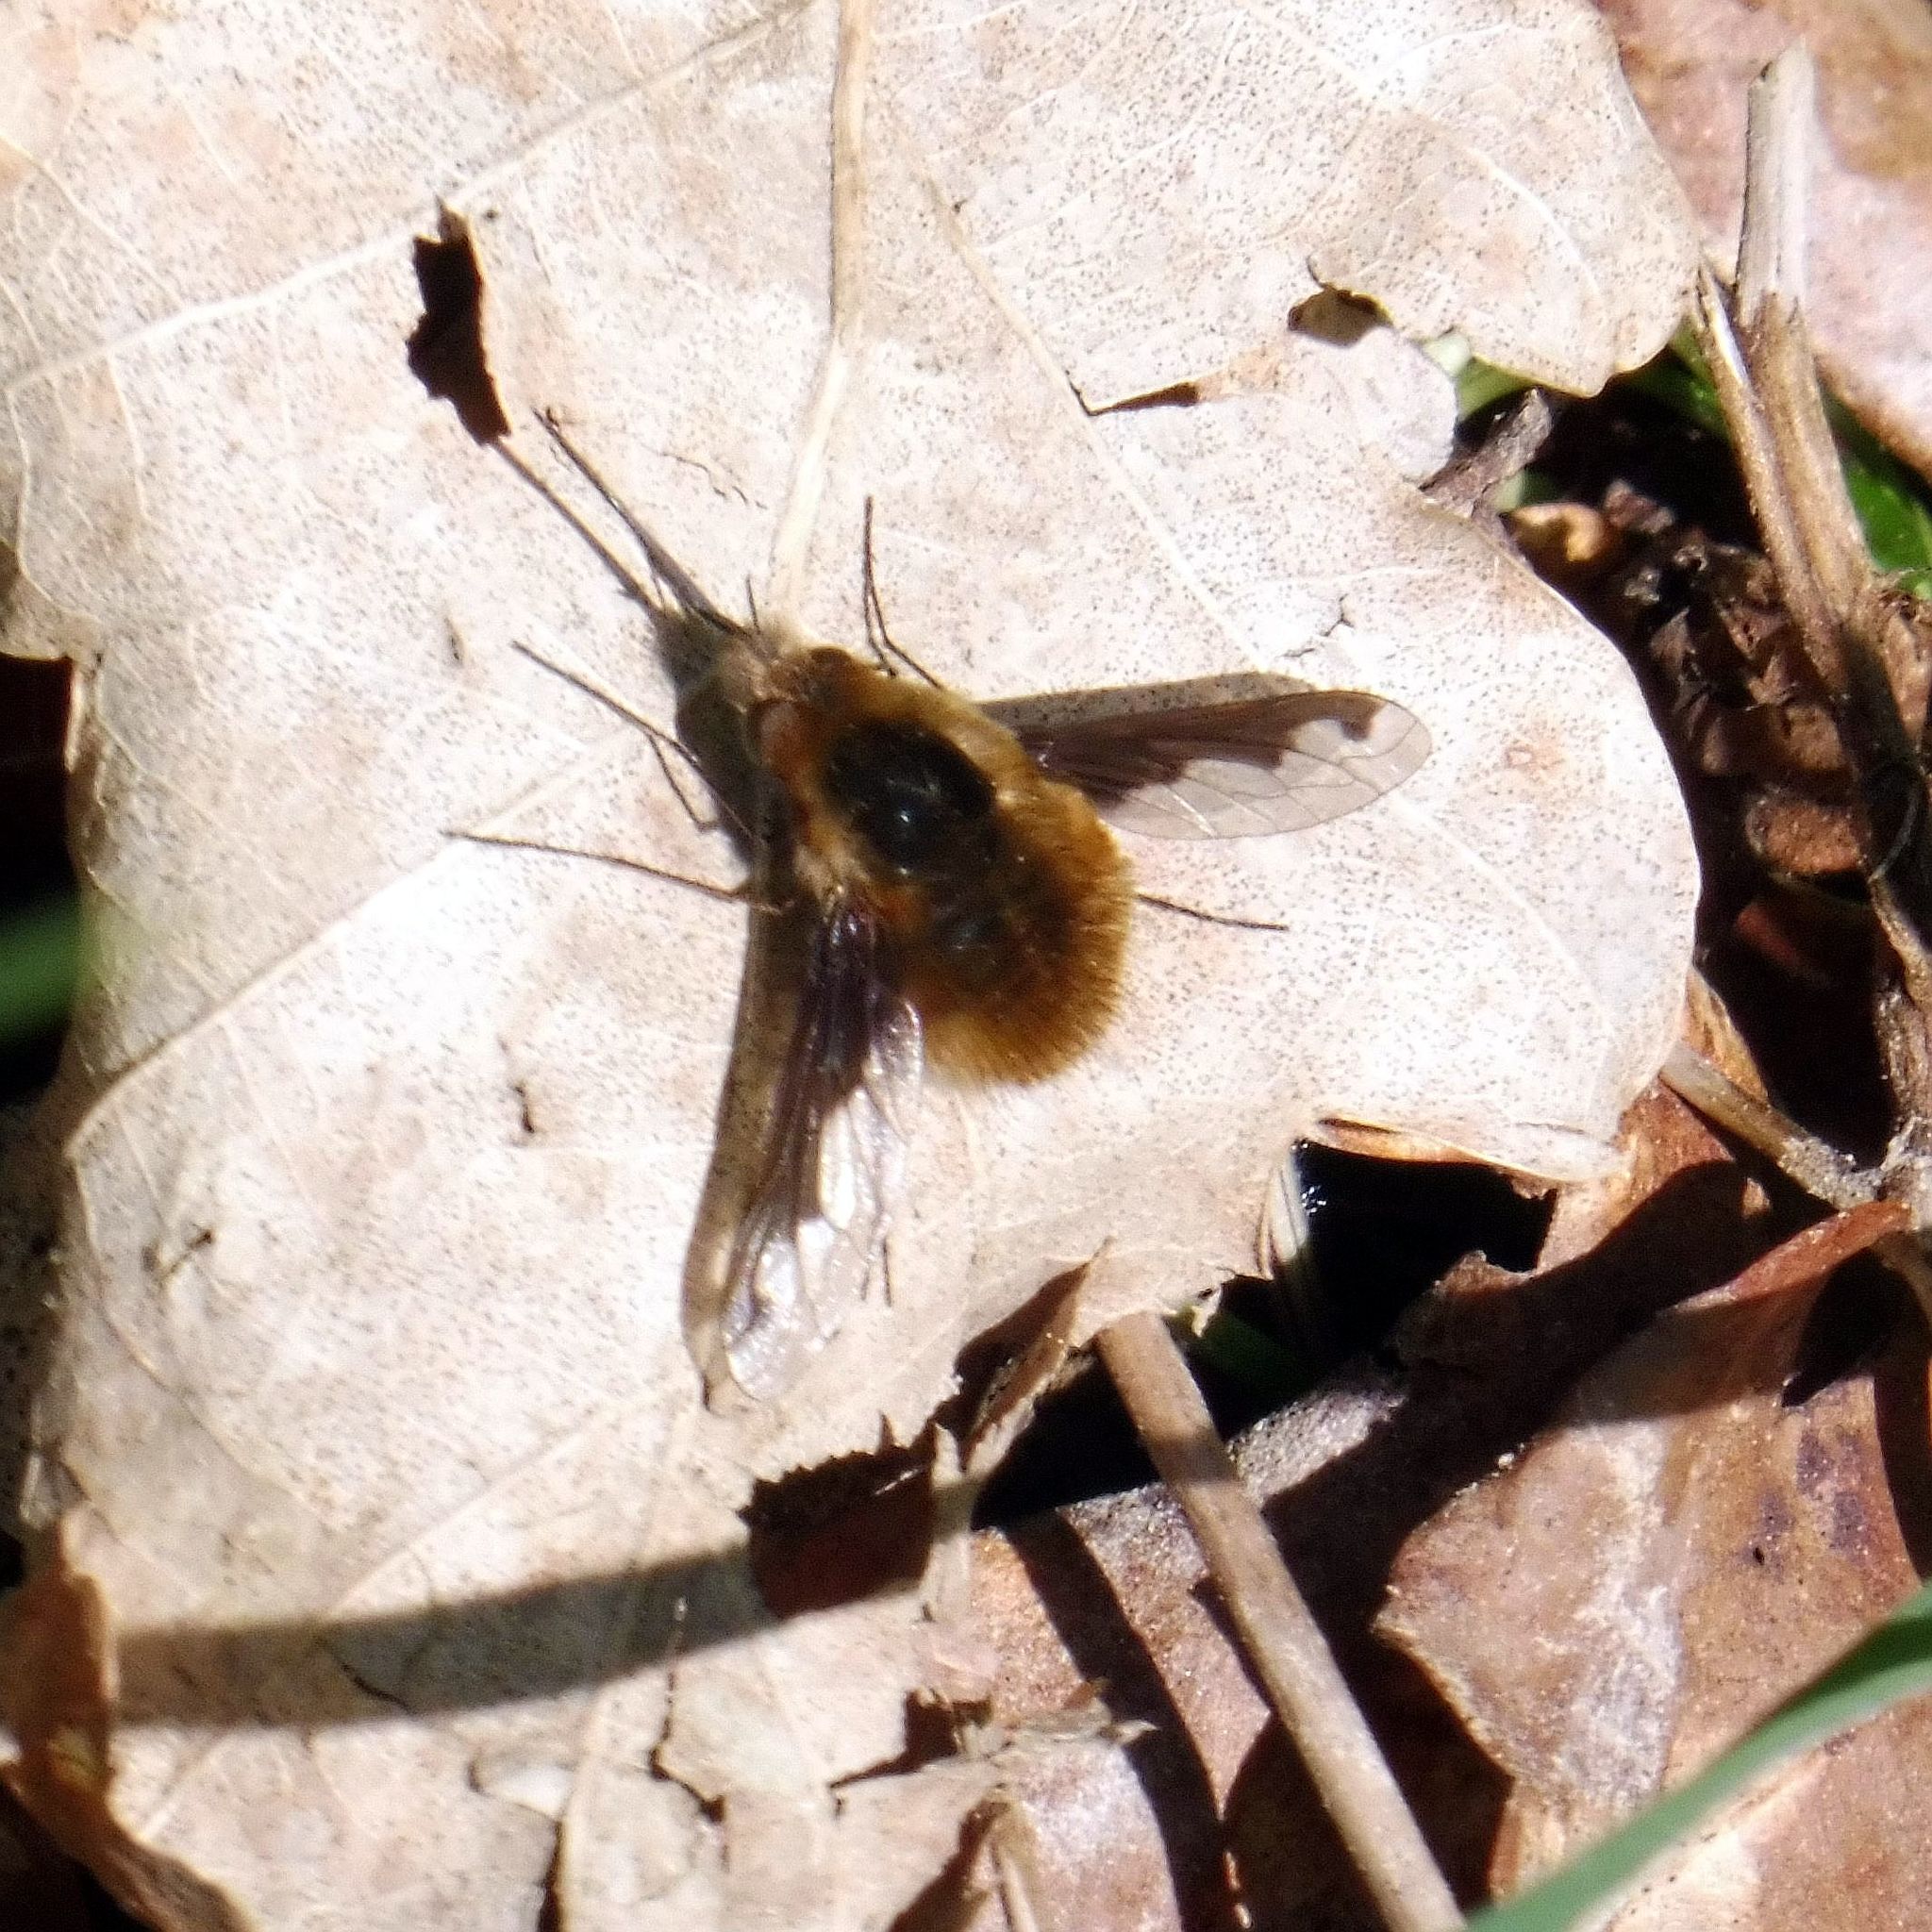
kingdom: Animalia
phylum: Arthropoda
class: Insecta
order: Diptera
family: Bombyliidae
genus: Bombylius
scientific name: Bombylius major
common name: Bee fly
